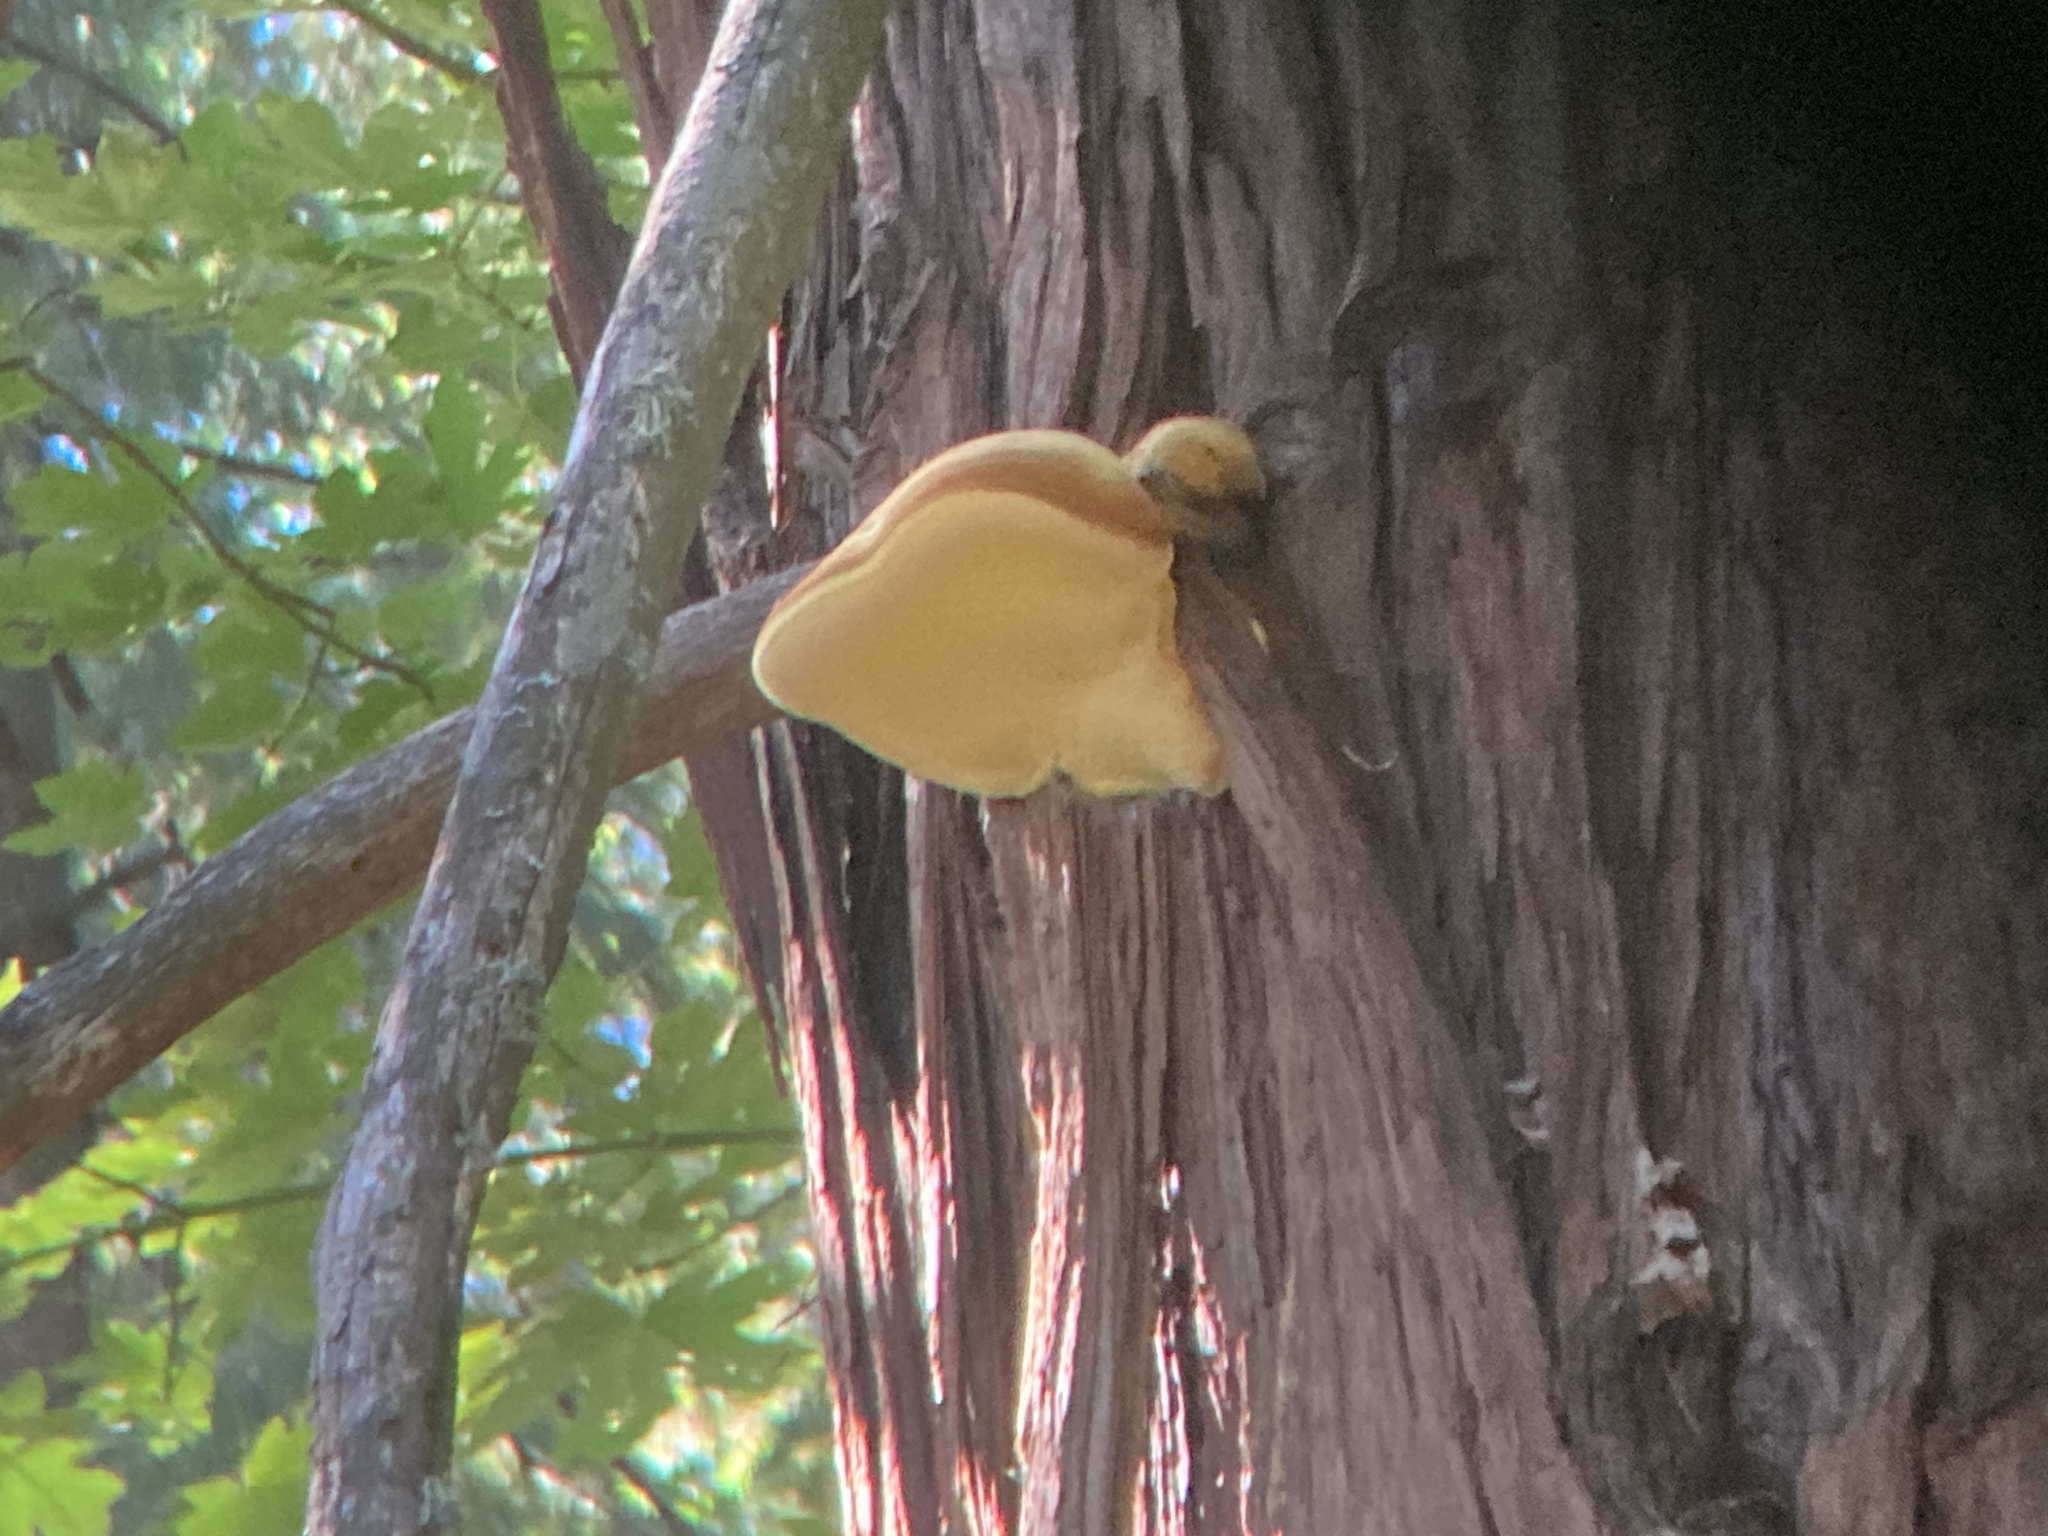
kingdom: Fungi
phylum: Basidiomycota
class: Agaricomycetes
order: Polyporales
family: Incrustoporiaceae
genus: Tyromyces
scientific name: Tyromyces amarus
